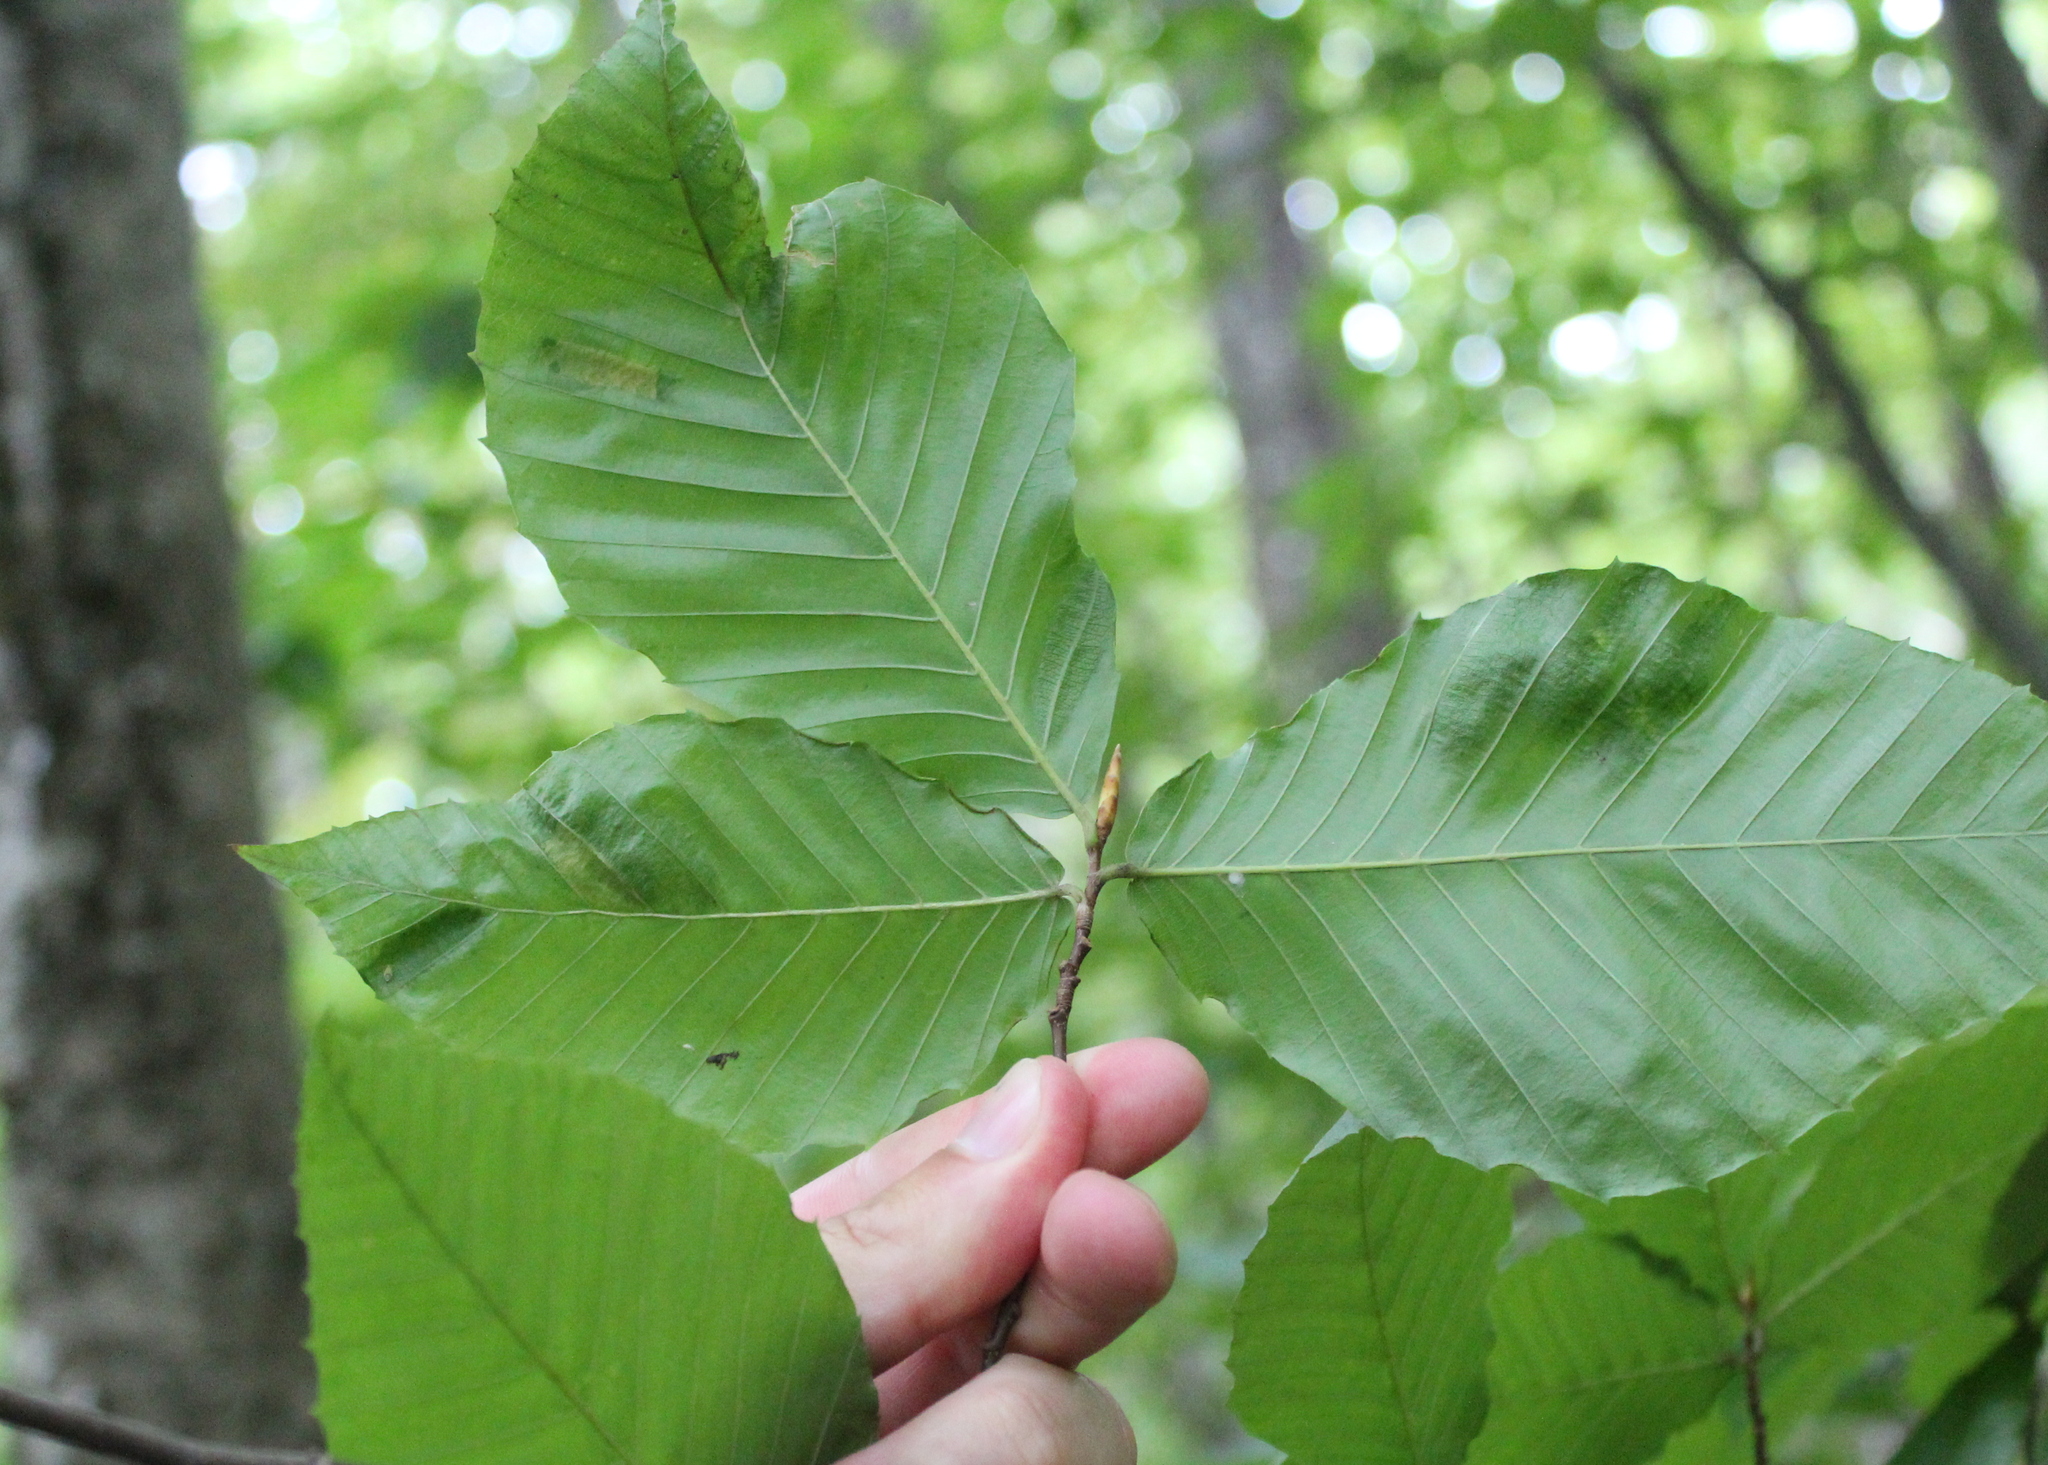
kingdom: Animalia
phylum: Nematoda
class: Chromadorea
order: Rhabditida
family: Anguinidae
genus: Litylenchus
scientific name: Litylenchus crenatae
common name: Beech leaf disease
